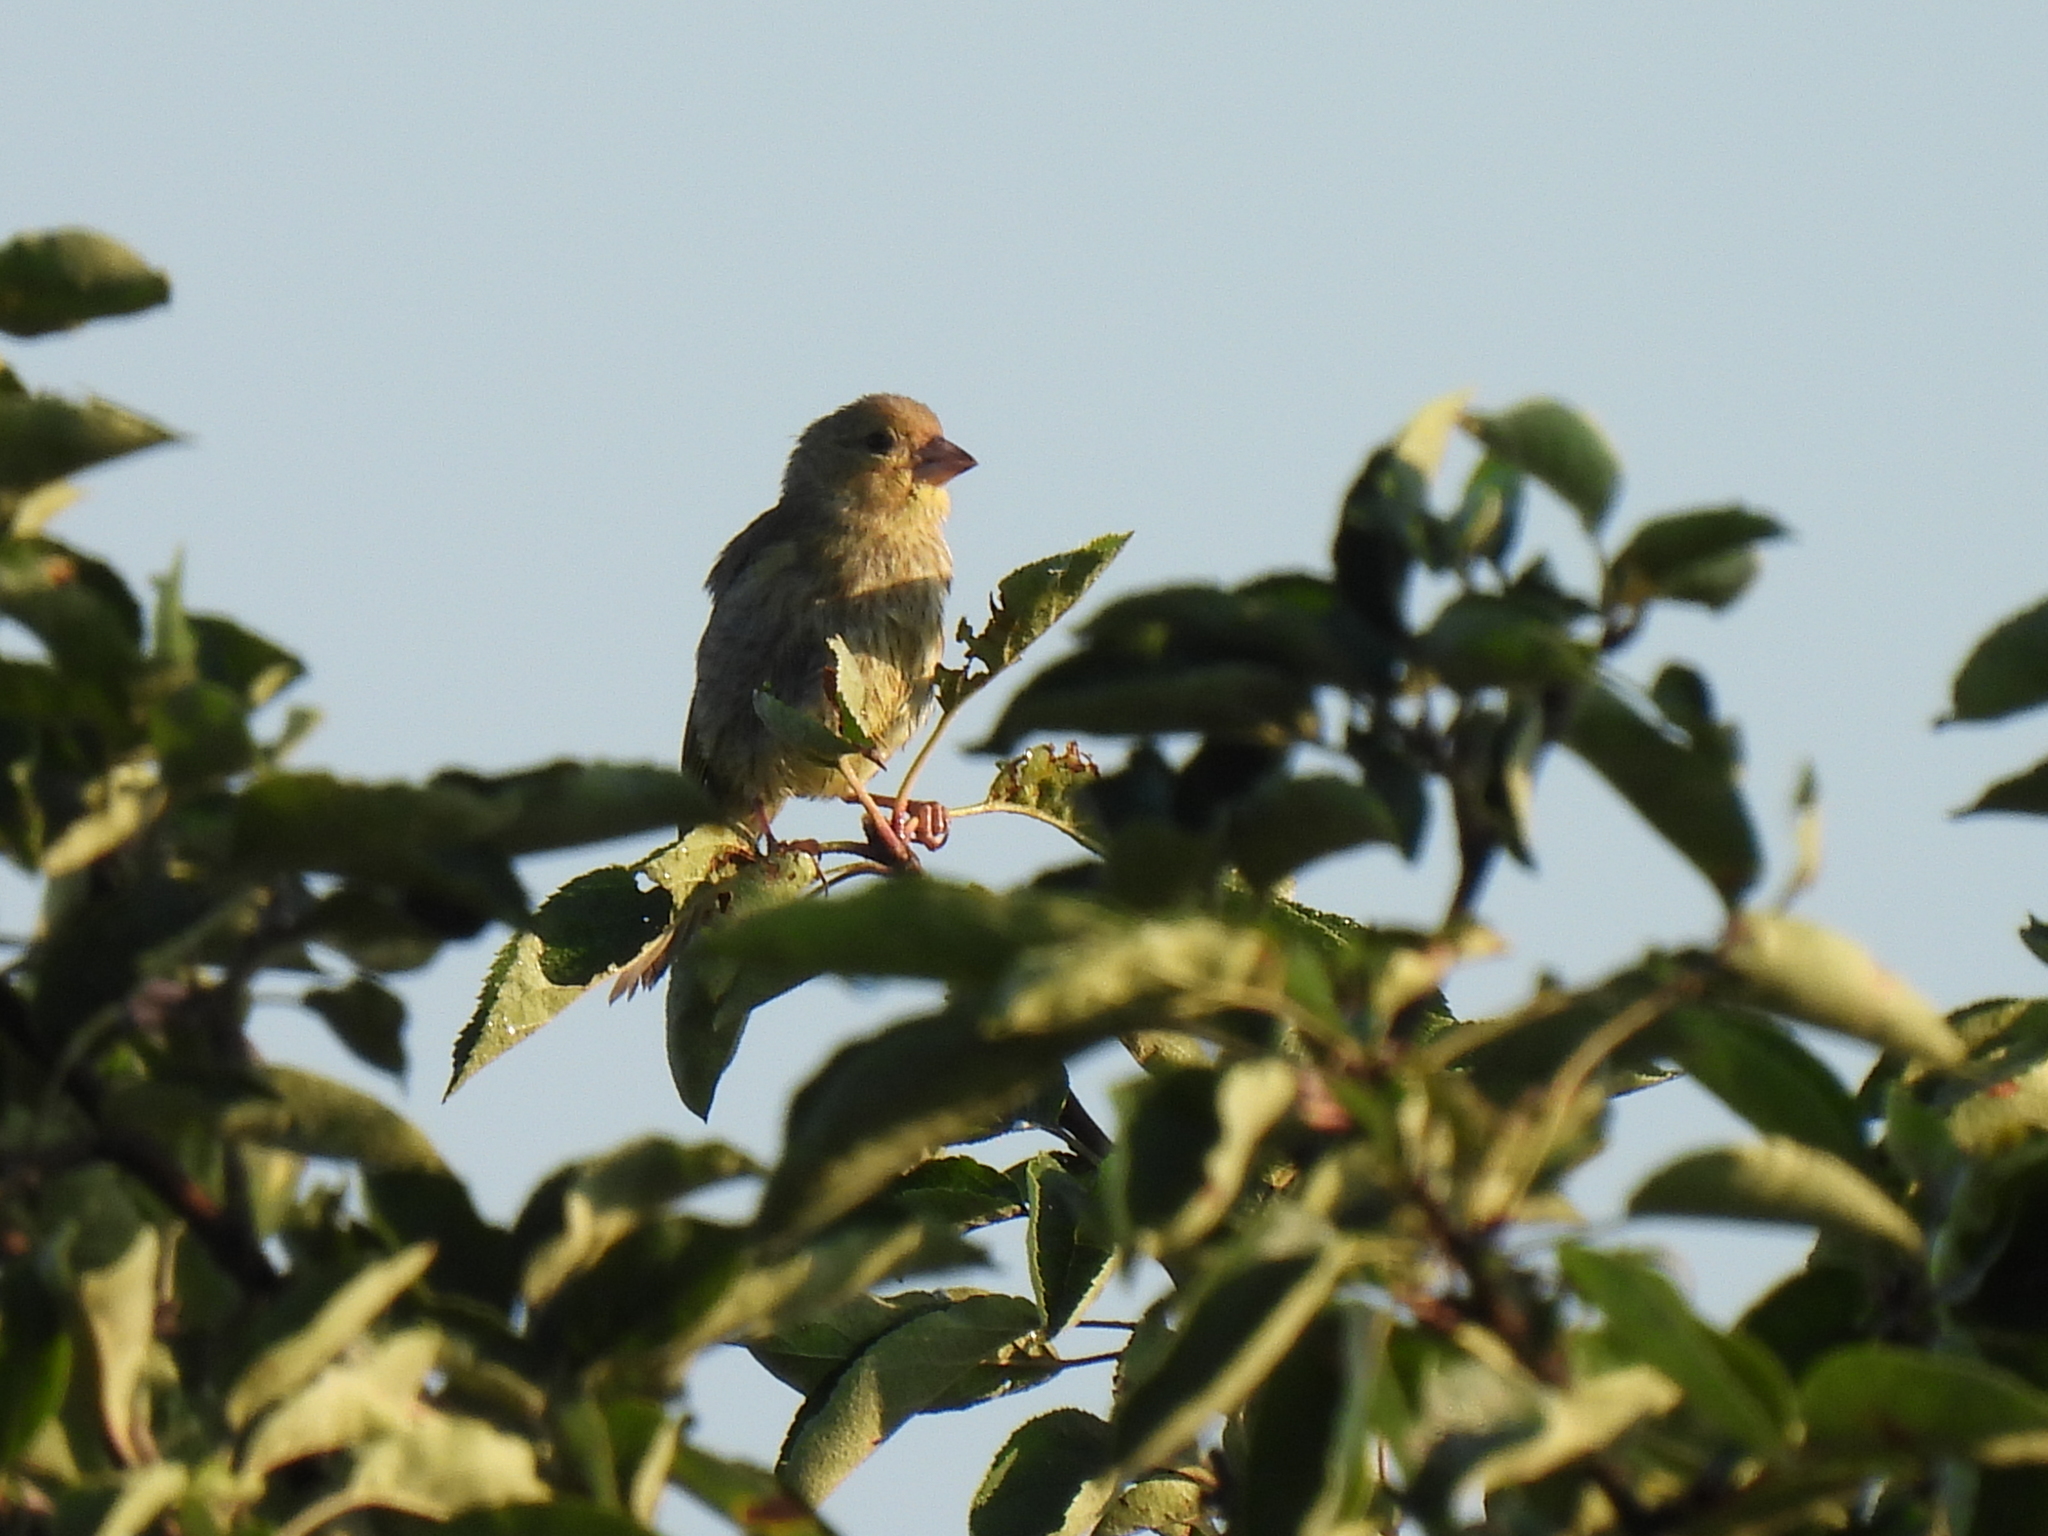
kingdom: Plantae
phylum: Tracheophyta
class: Liliopsida
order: Poales
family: Poaceae
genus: Chloris
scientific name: Chloris chloris
